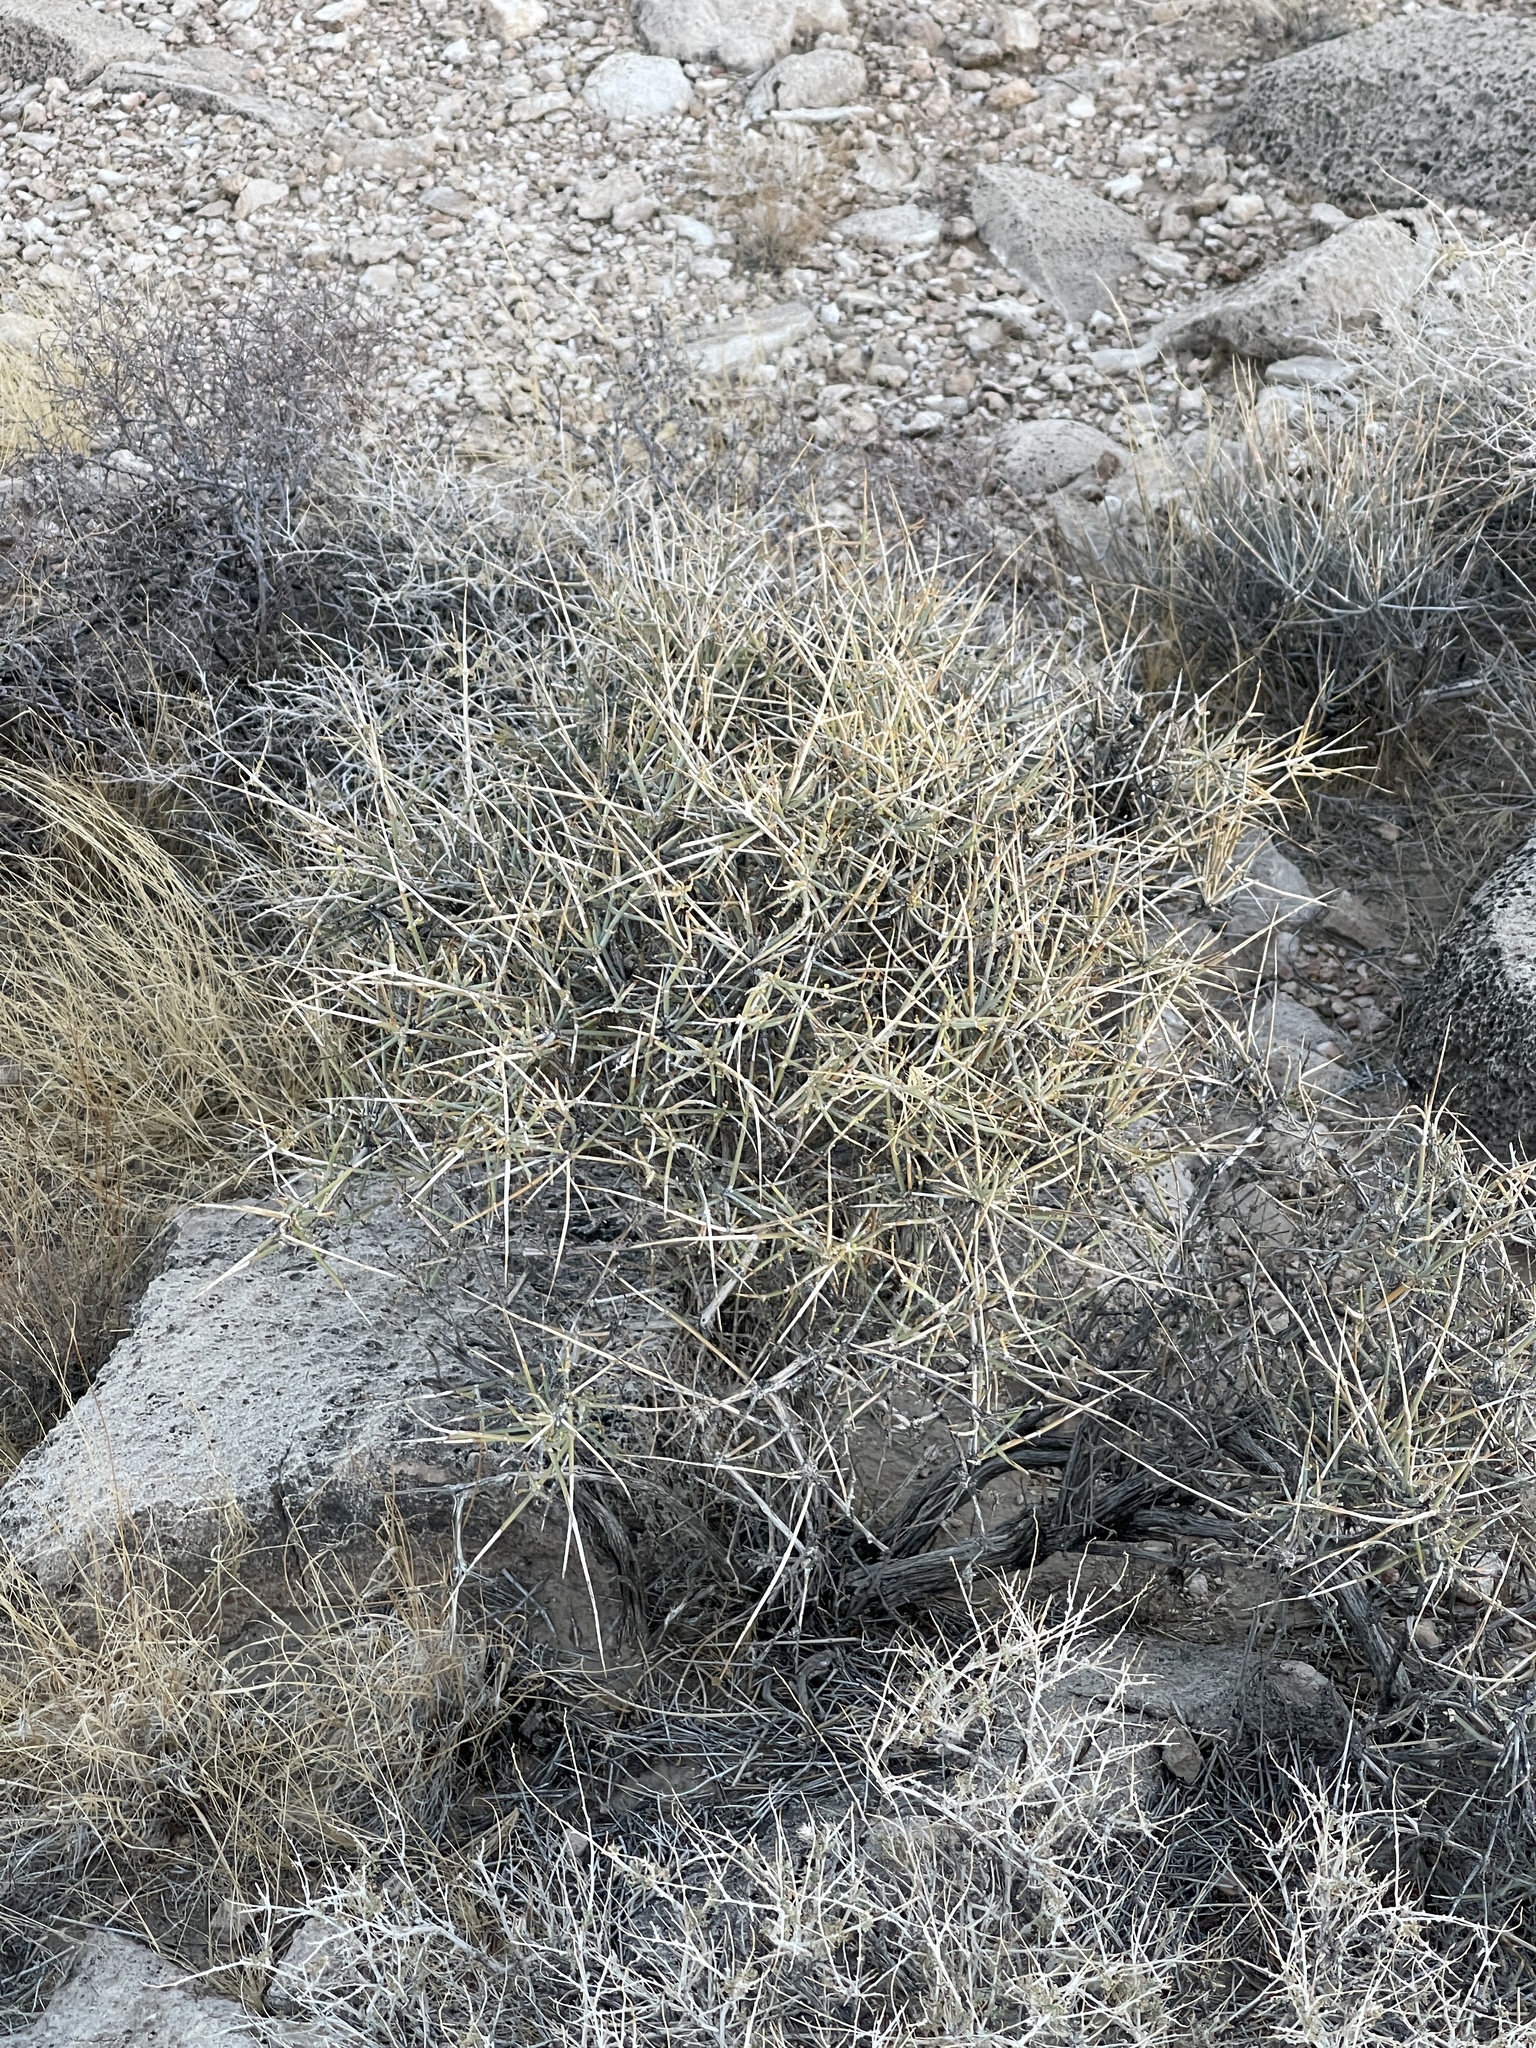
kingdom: Plantae
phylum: Tracheophyta
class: Gnetopsida
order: Ephedrales
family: Ephedraceae
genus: Ephedra
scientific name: Ephedra nevadensis
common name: Gray ephedra
